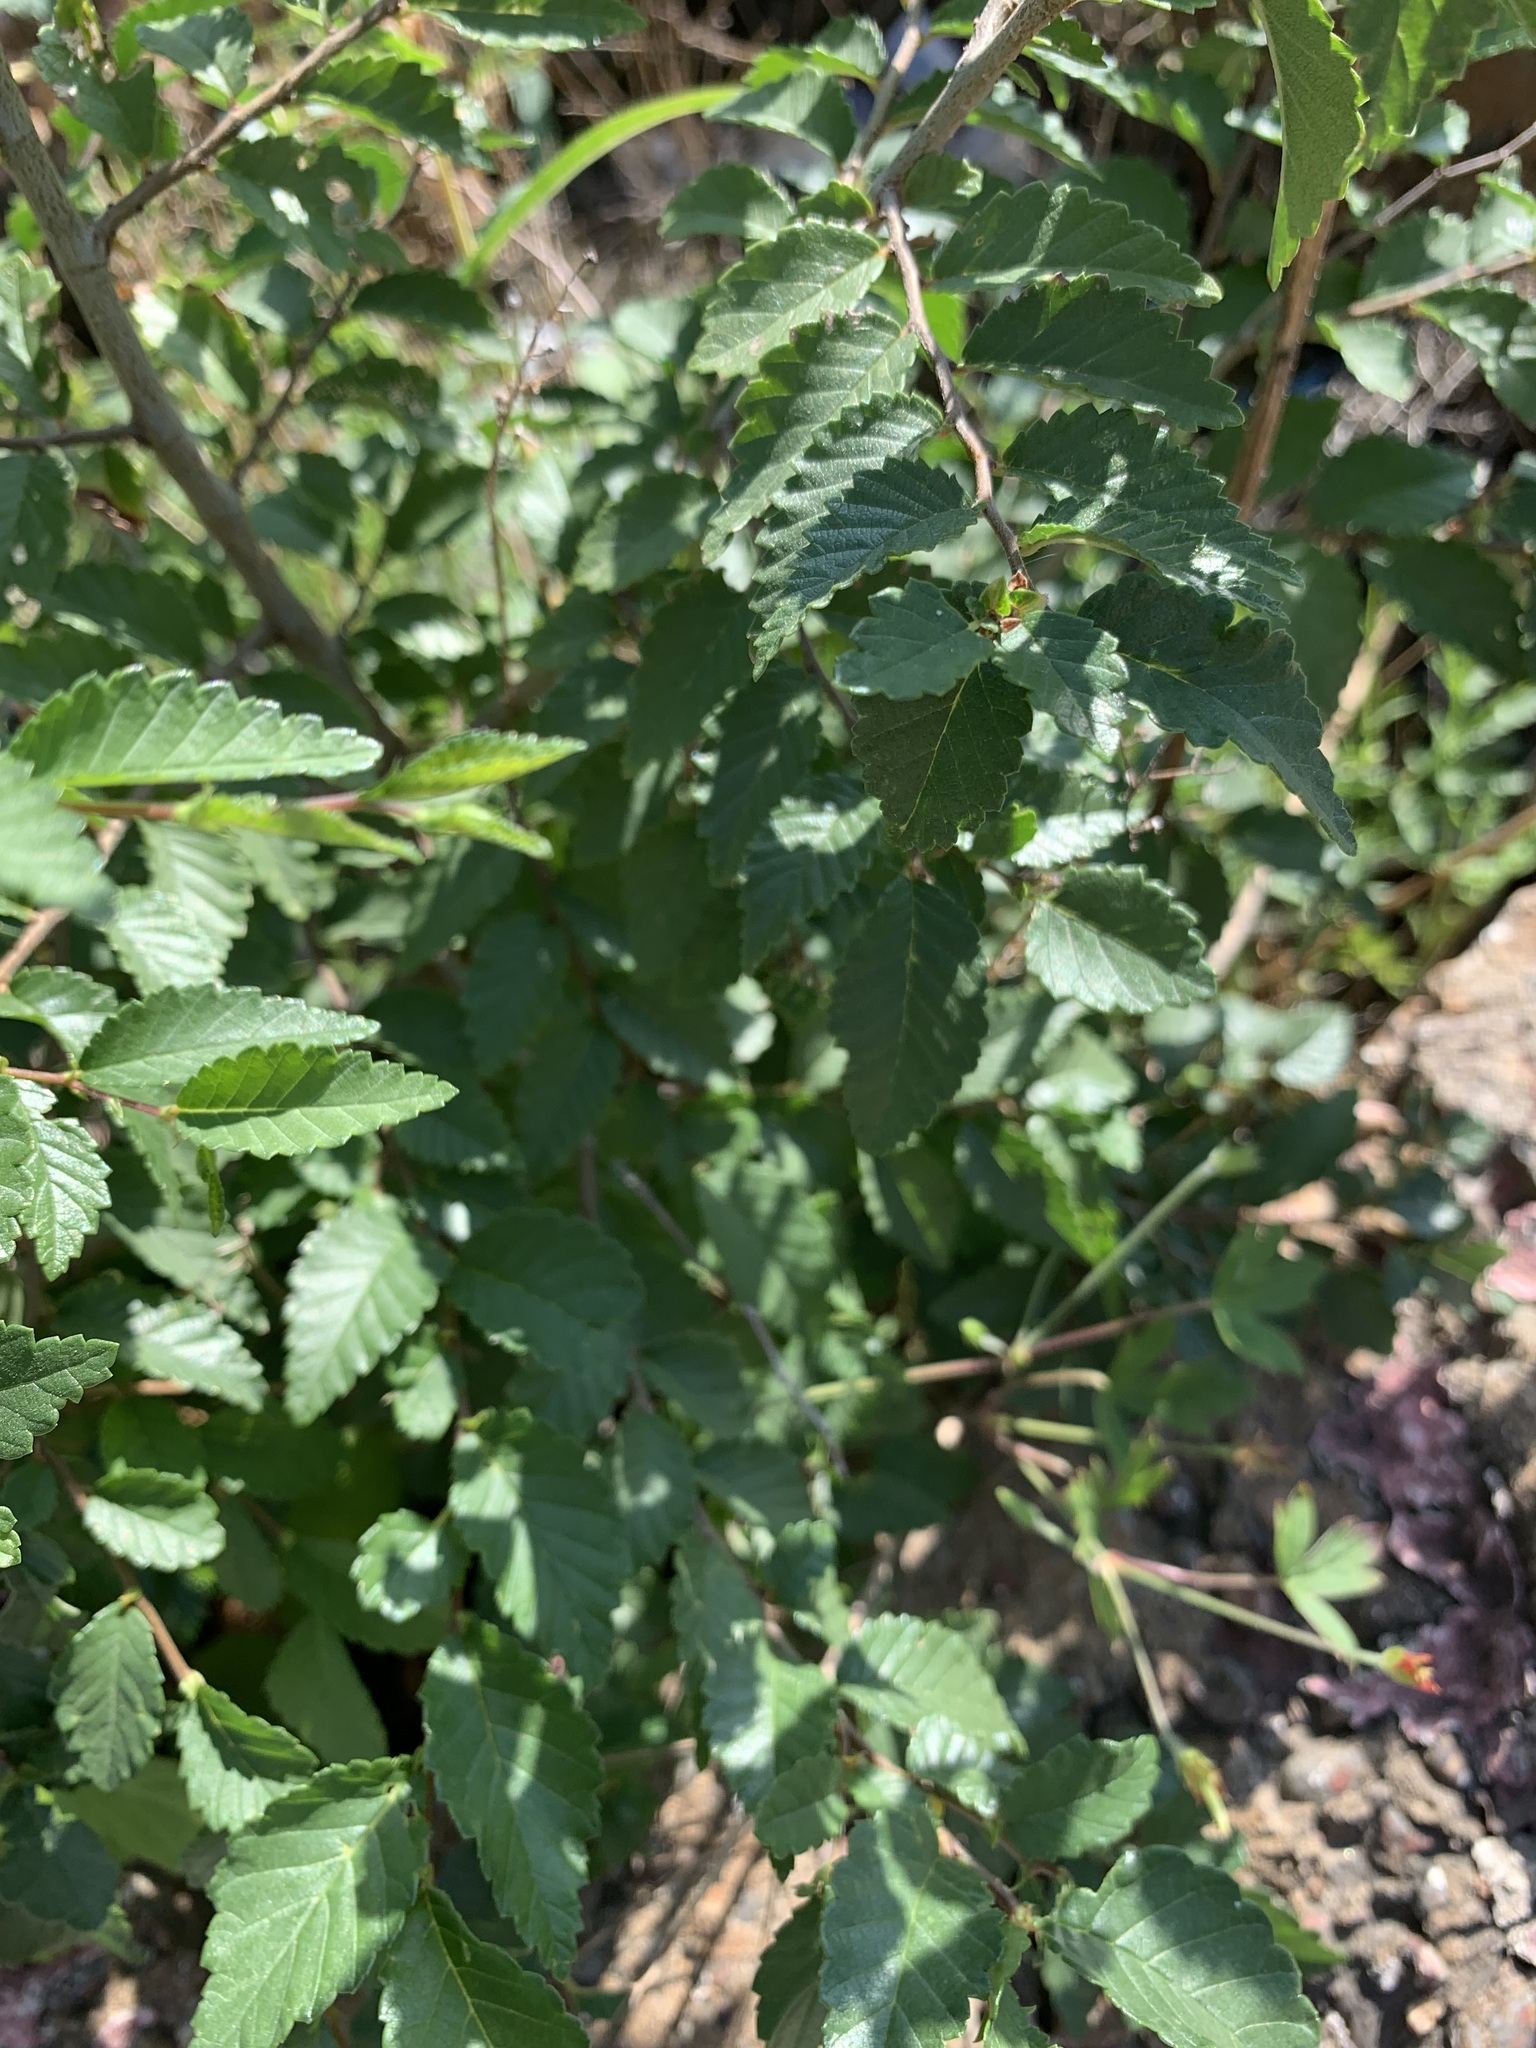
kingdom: Plantae
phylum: Tracheophyta
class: Magnoliopsida
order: Rosales
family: Ulmaceae
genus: Ulmus
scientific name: Ulmus pumila
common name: Siberian elm
